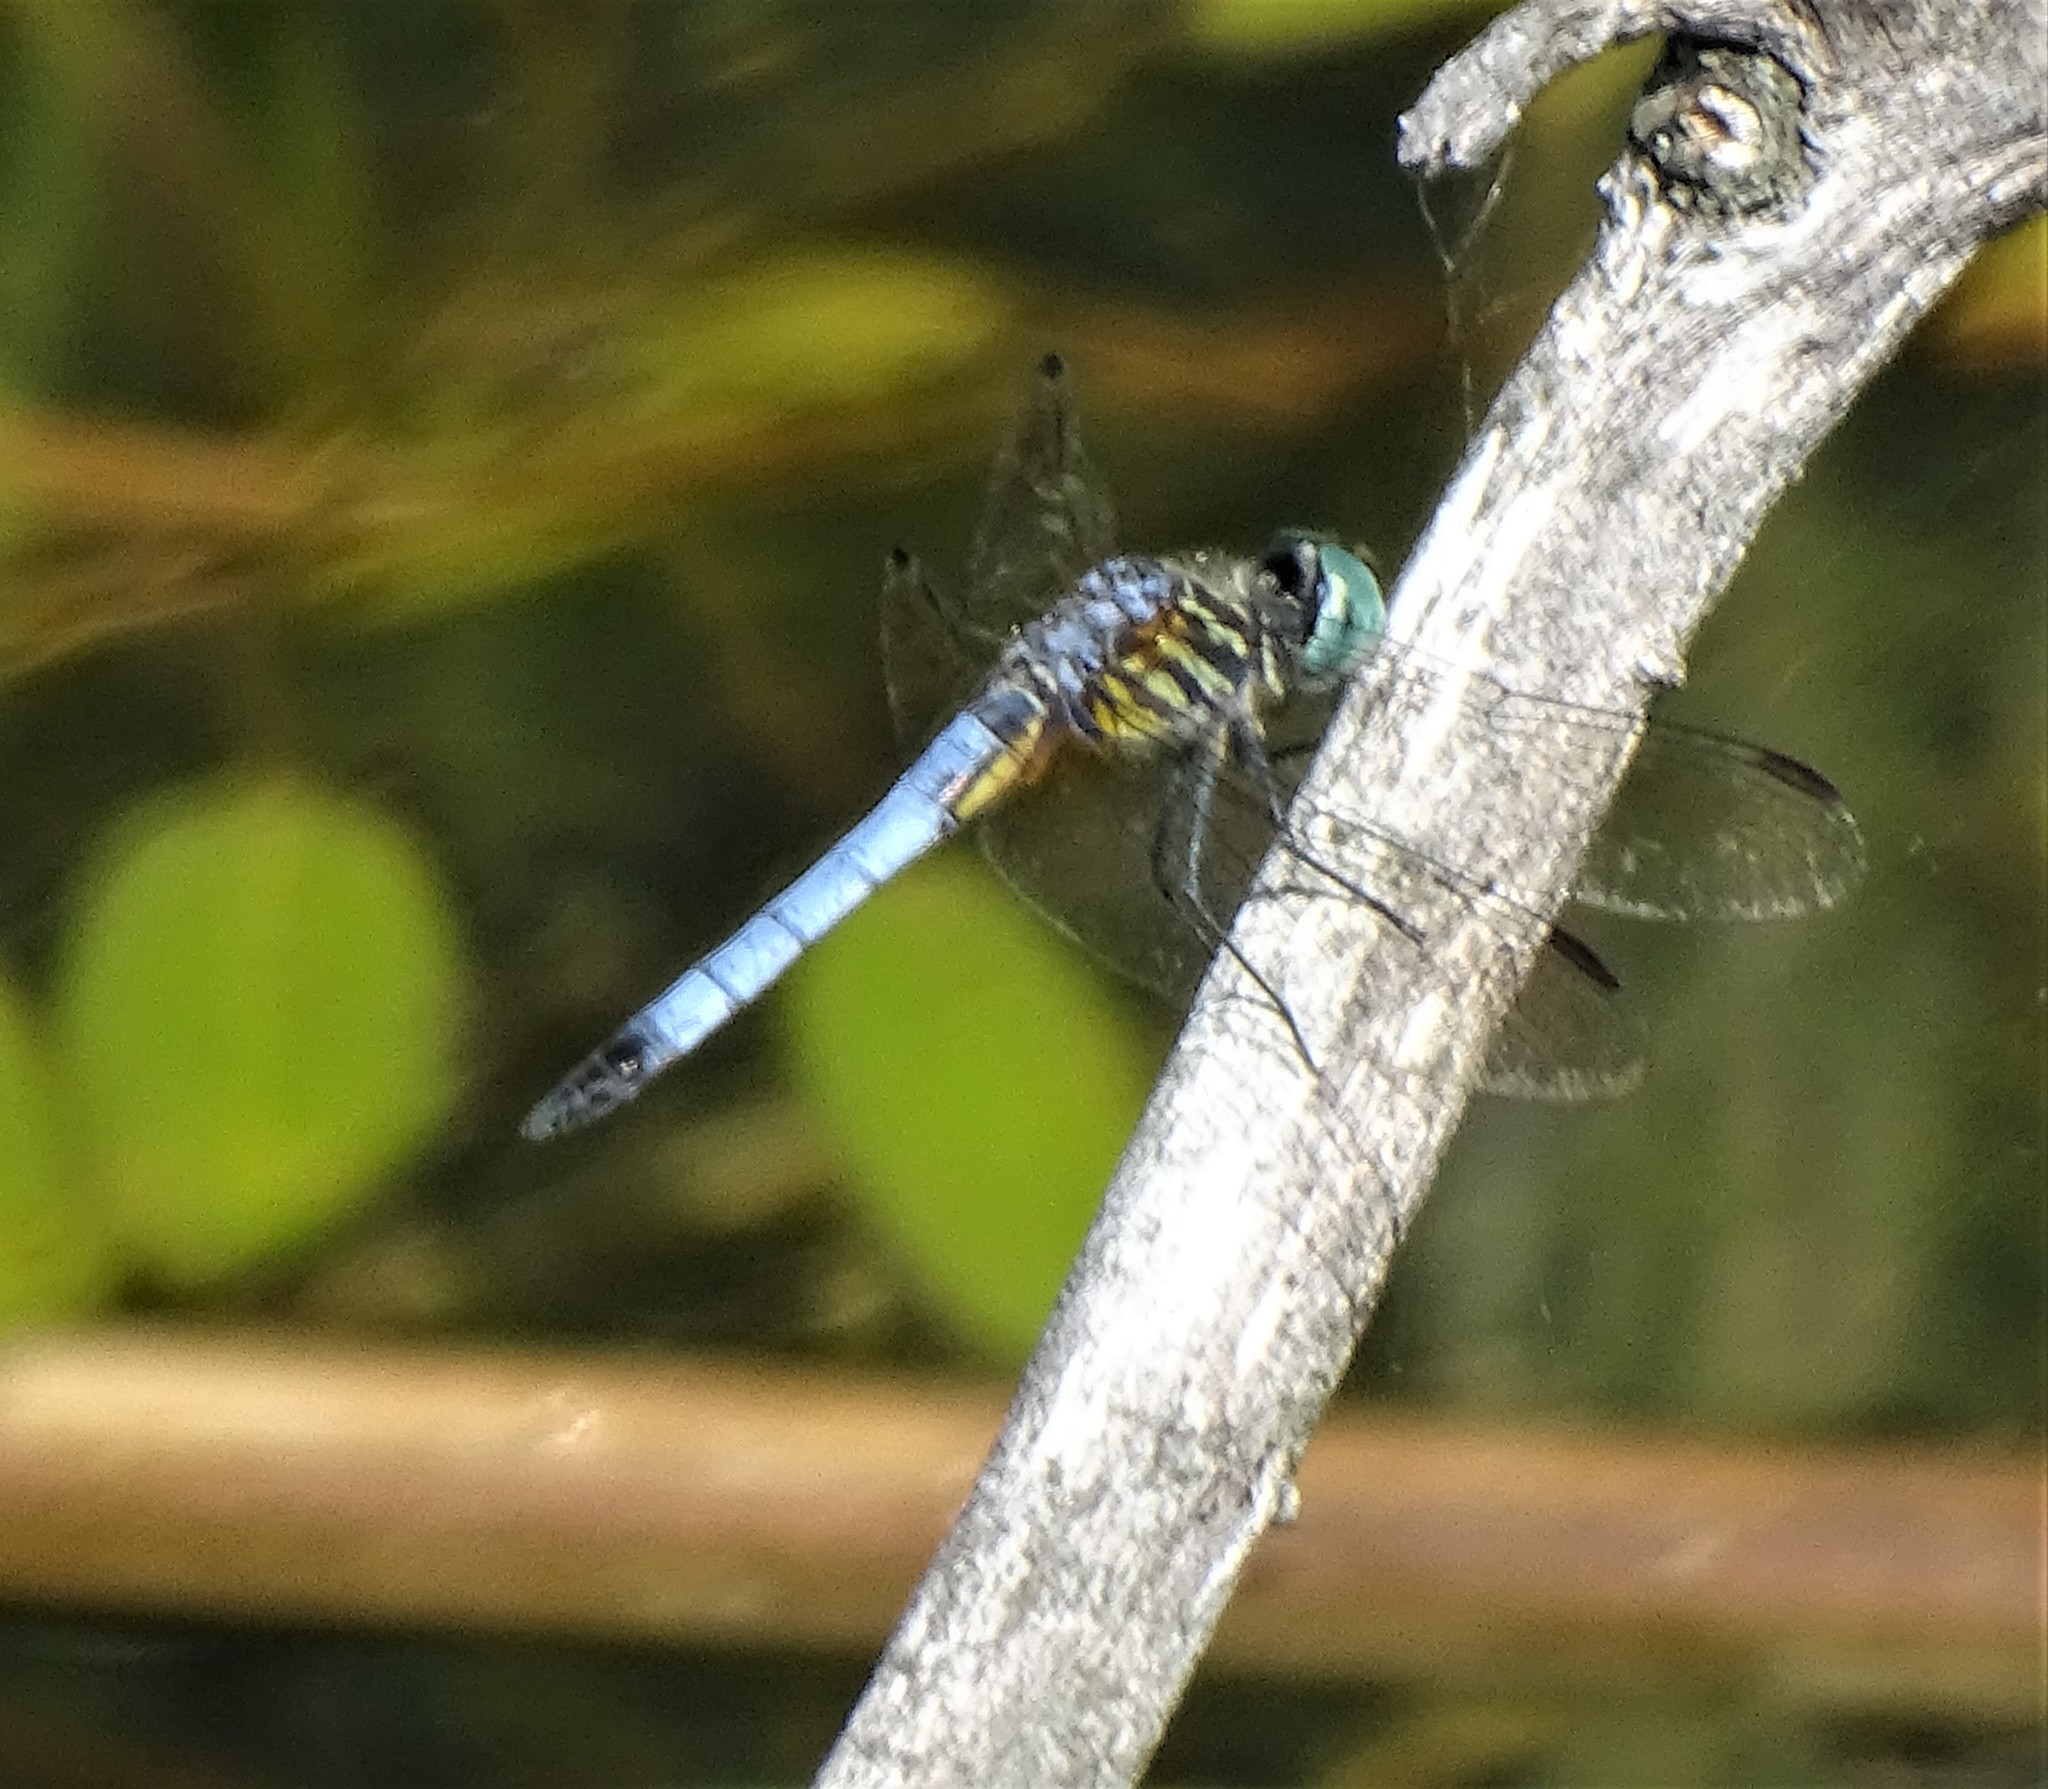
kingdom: Animalia
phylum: Arthropoda
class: Insecta
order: Odonata
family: Libellulidae
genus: Pachydiplax
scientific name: Pachydiplax longipennis
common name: Blue dasher
